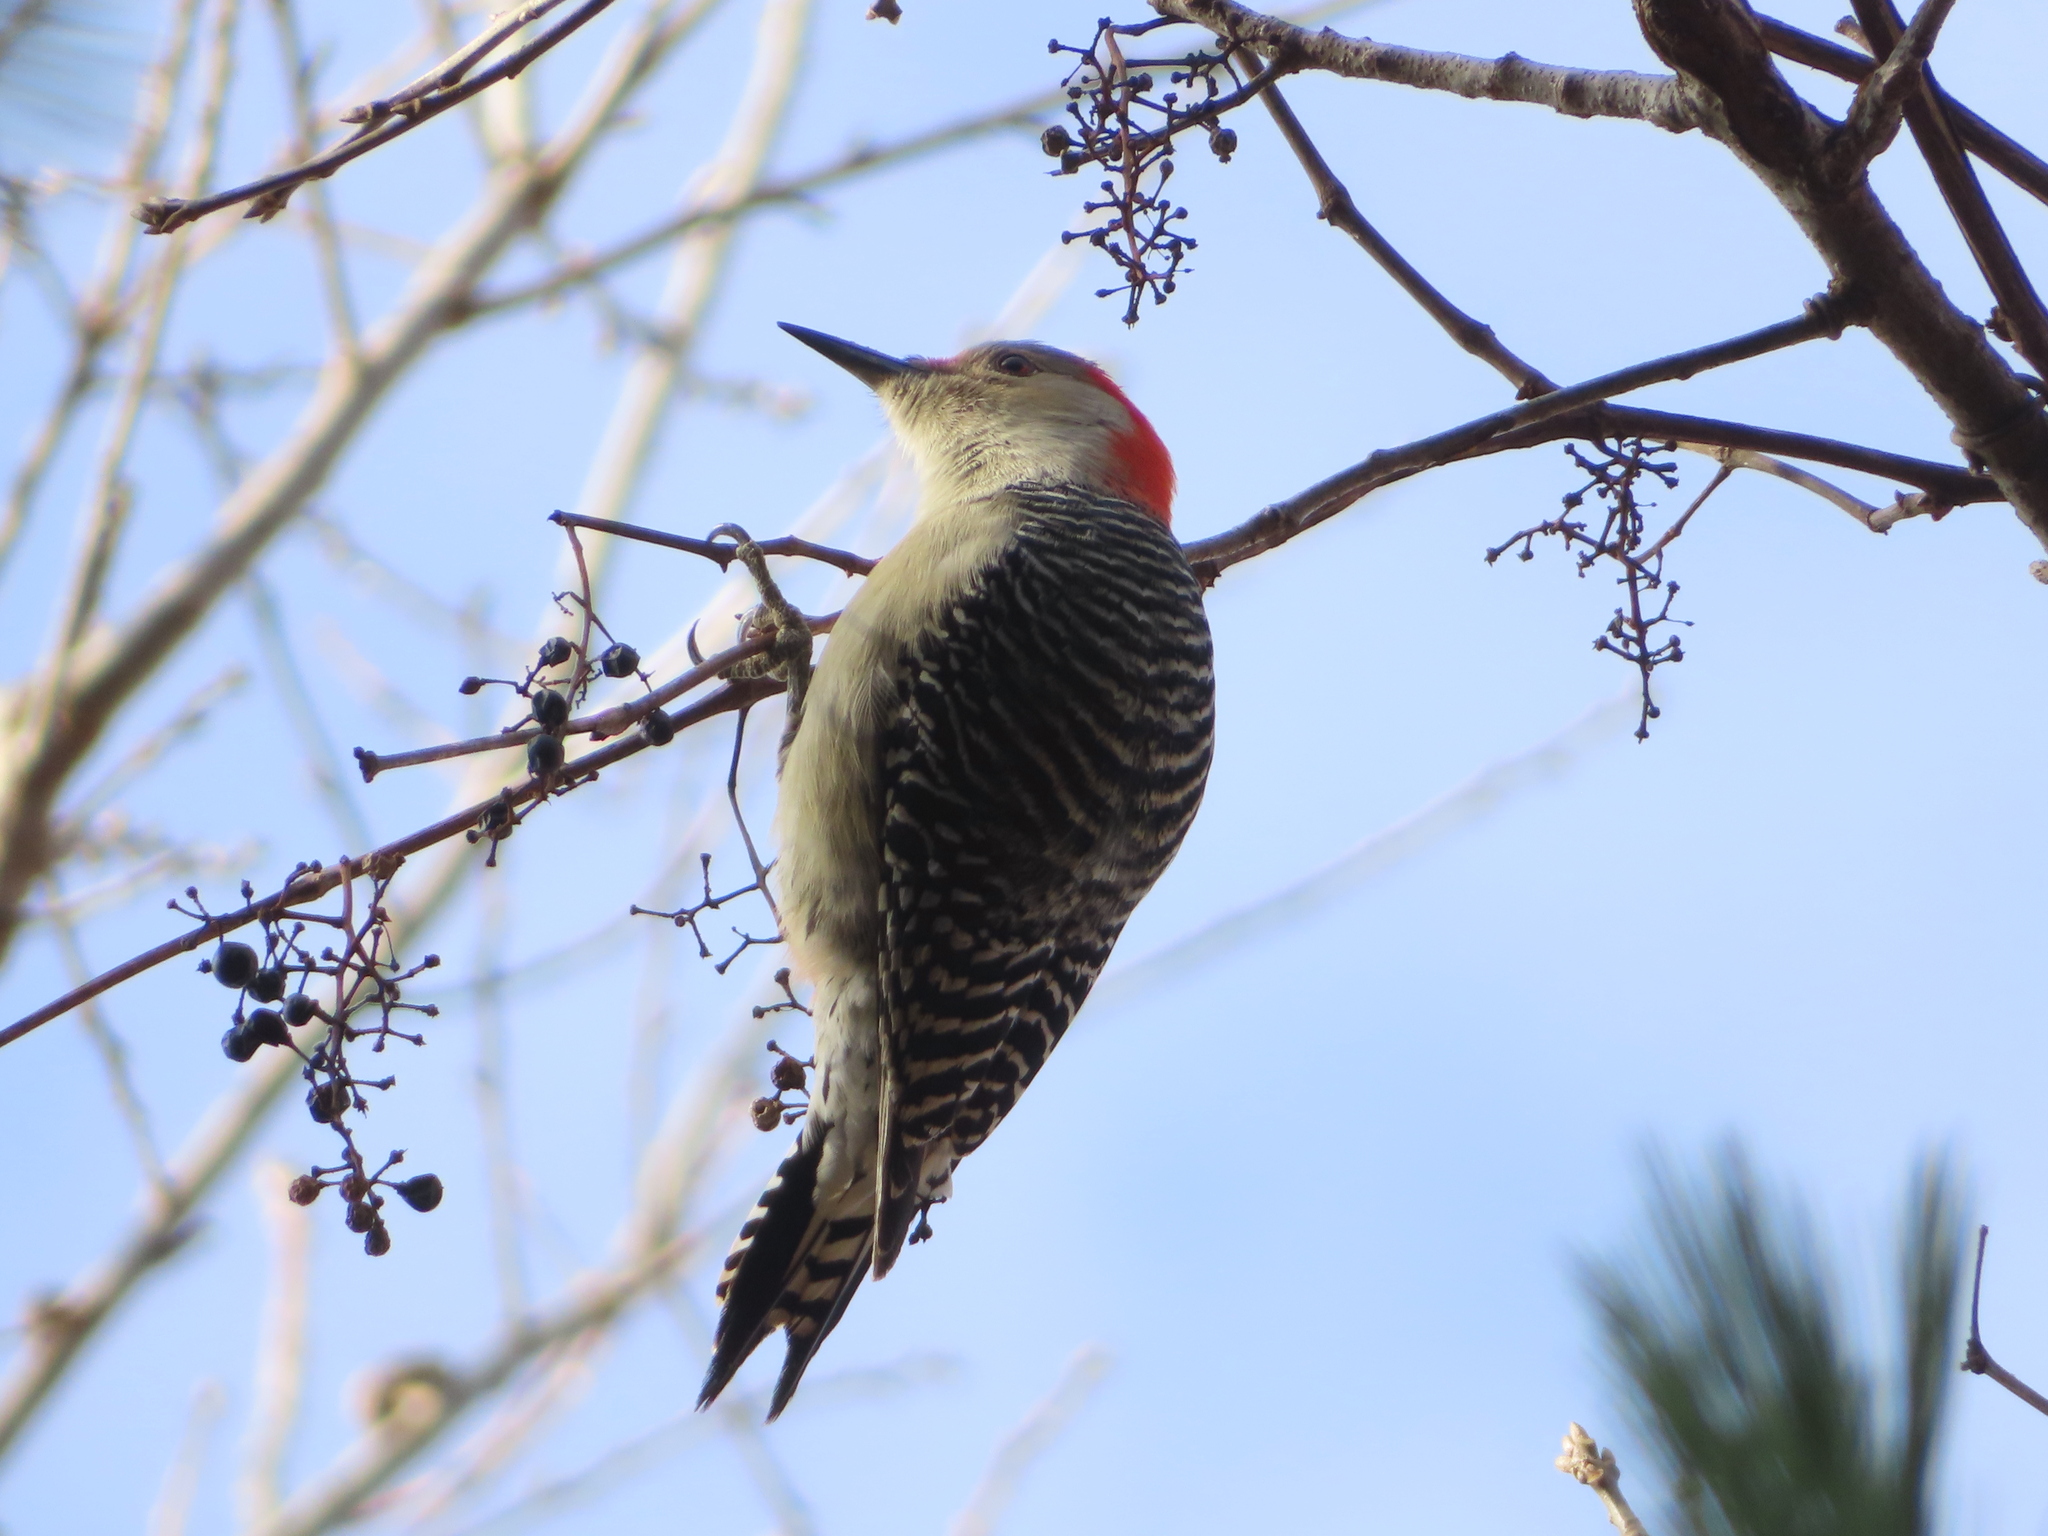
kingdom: Animalia
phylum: Chordata
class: Aves
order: Piciformes
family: Picidae
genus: Melanerpes
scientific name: Melanerpes carolinus
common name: Red-bellied woodpecker
